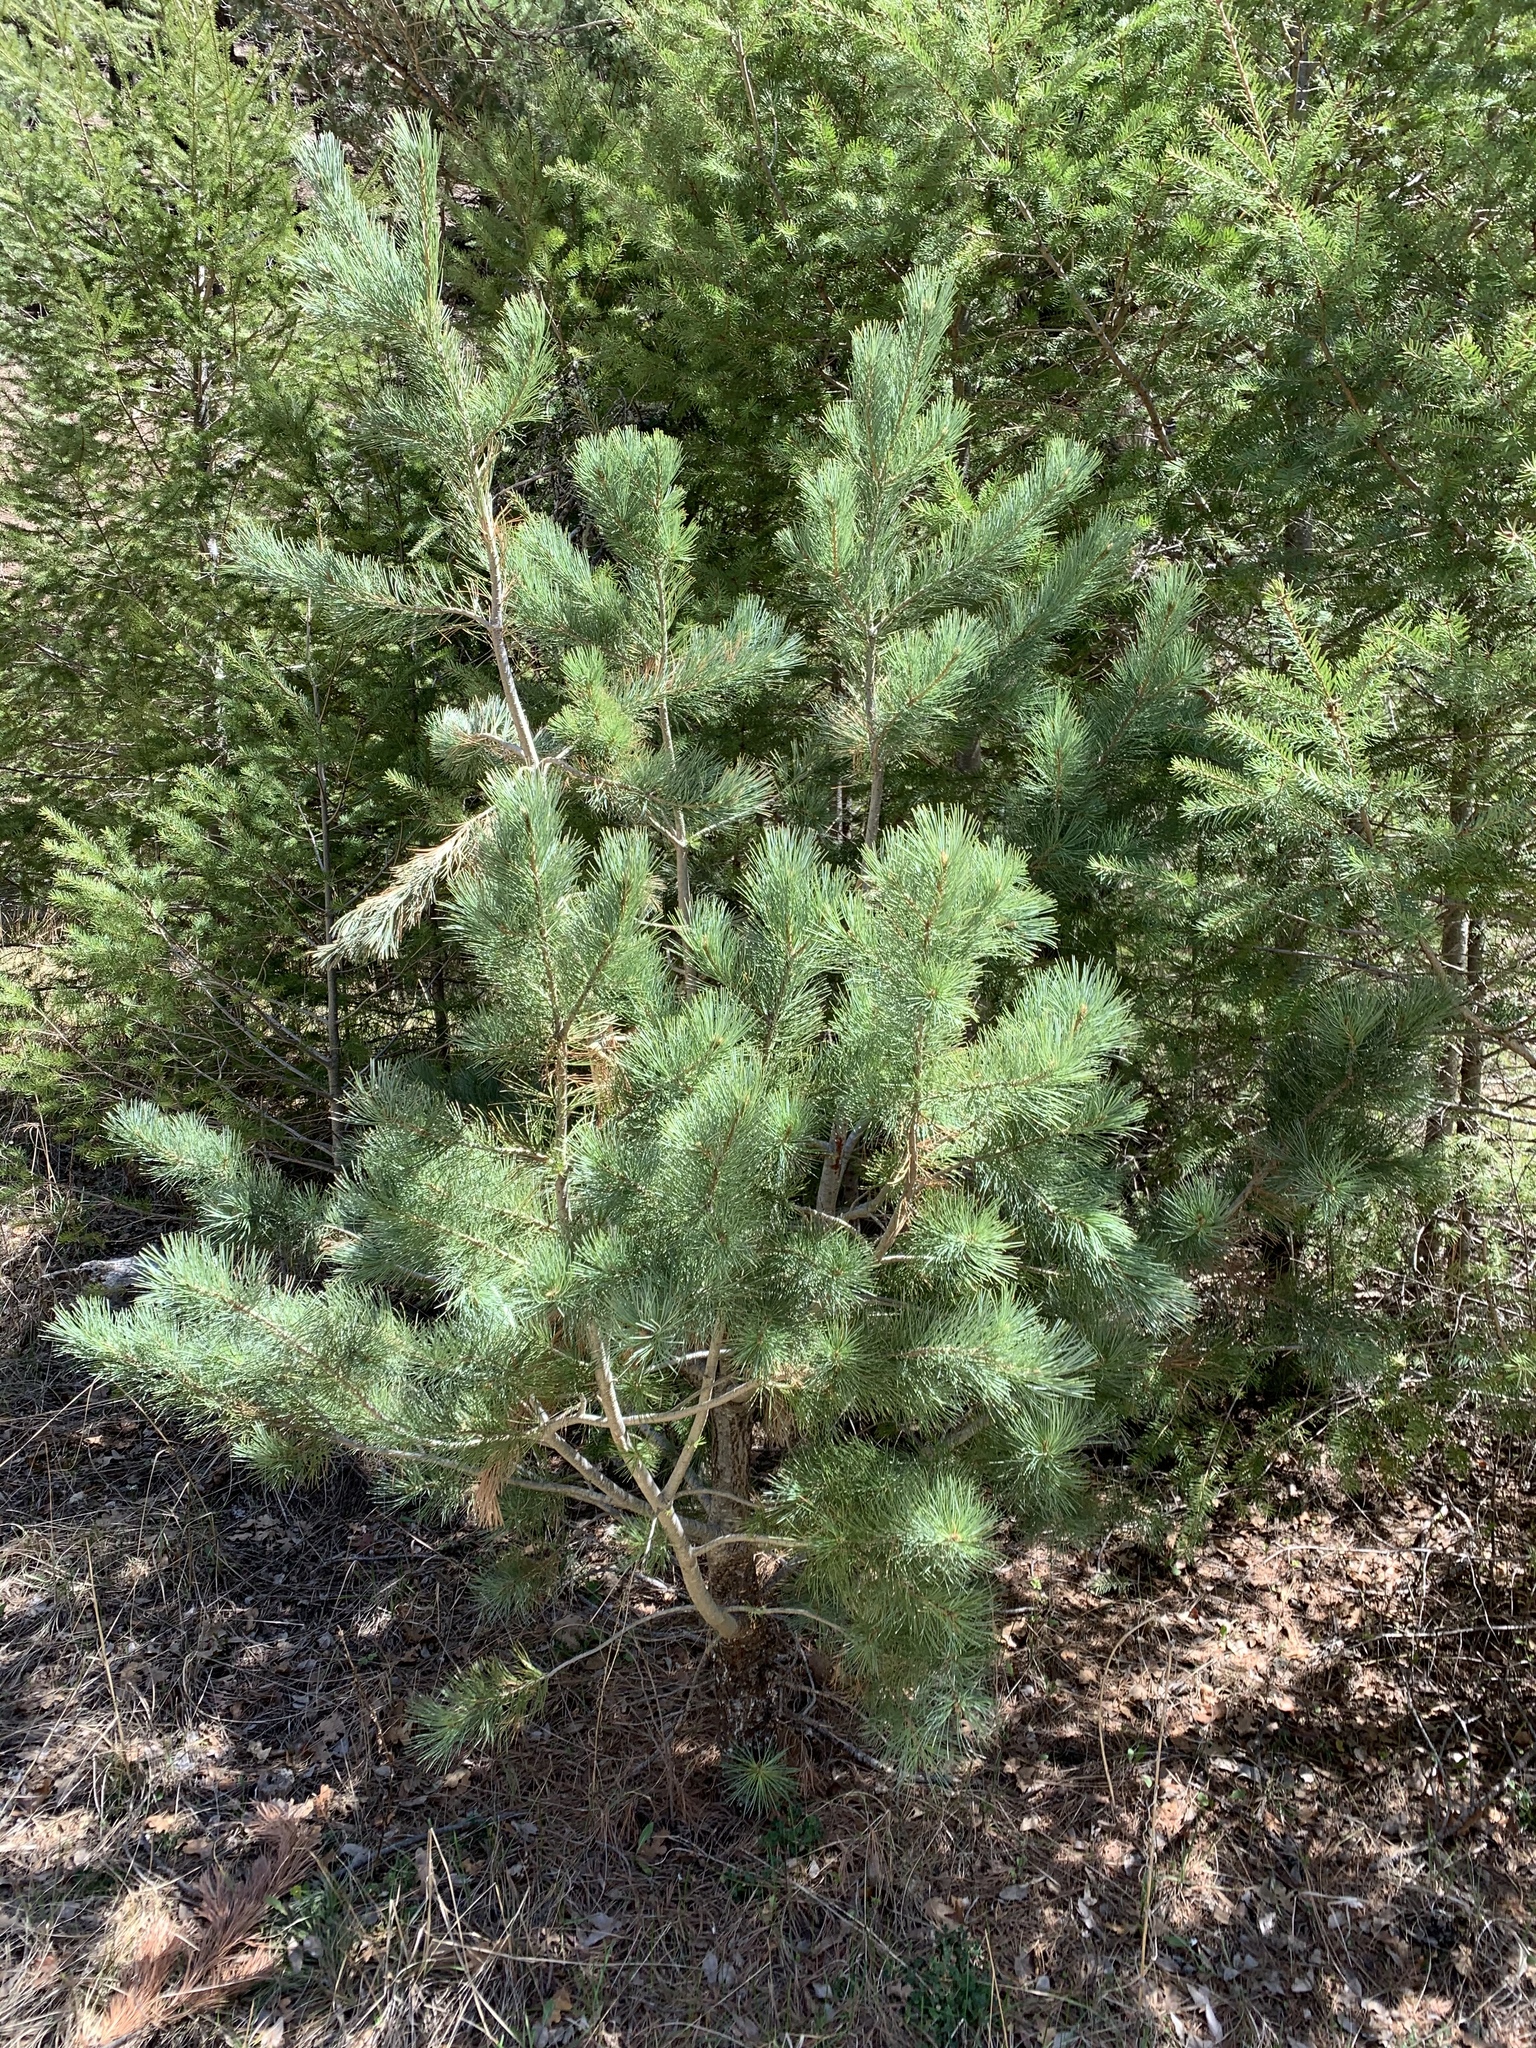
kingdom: Plantae
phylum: Tracheophyta
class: Pinopsida
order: Pinales
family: Pinaceae
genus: Pinus
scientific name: Pinus strobiformis
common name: Southwestern white pine
